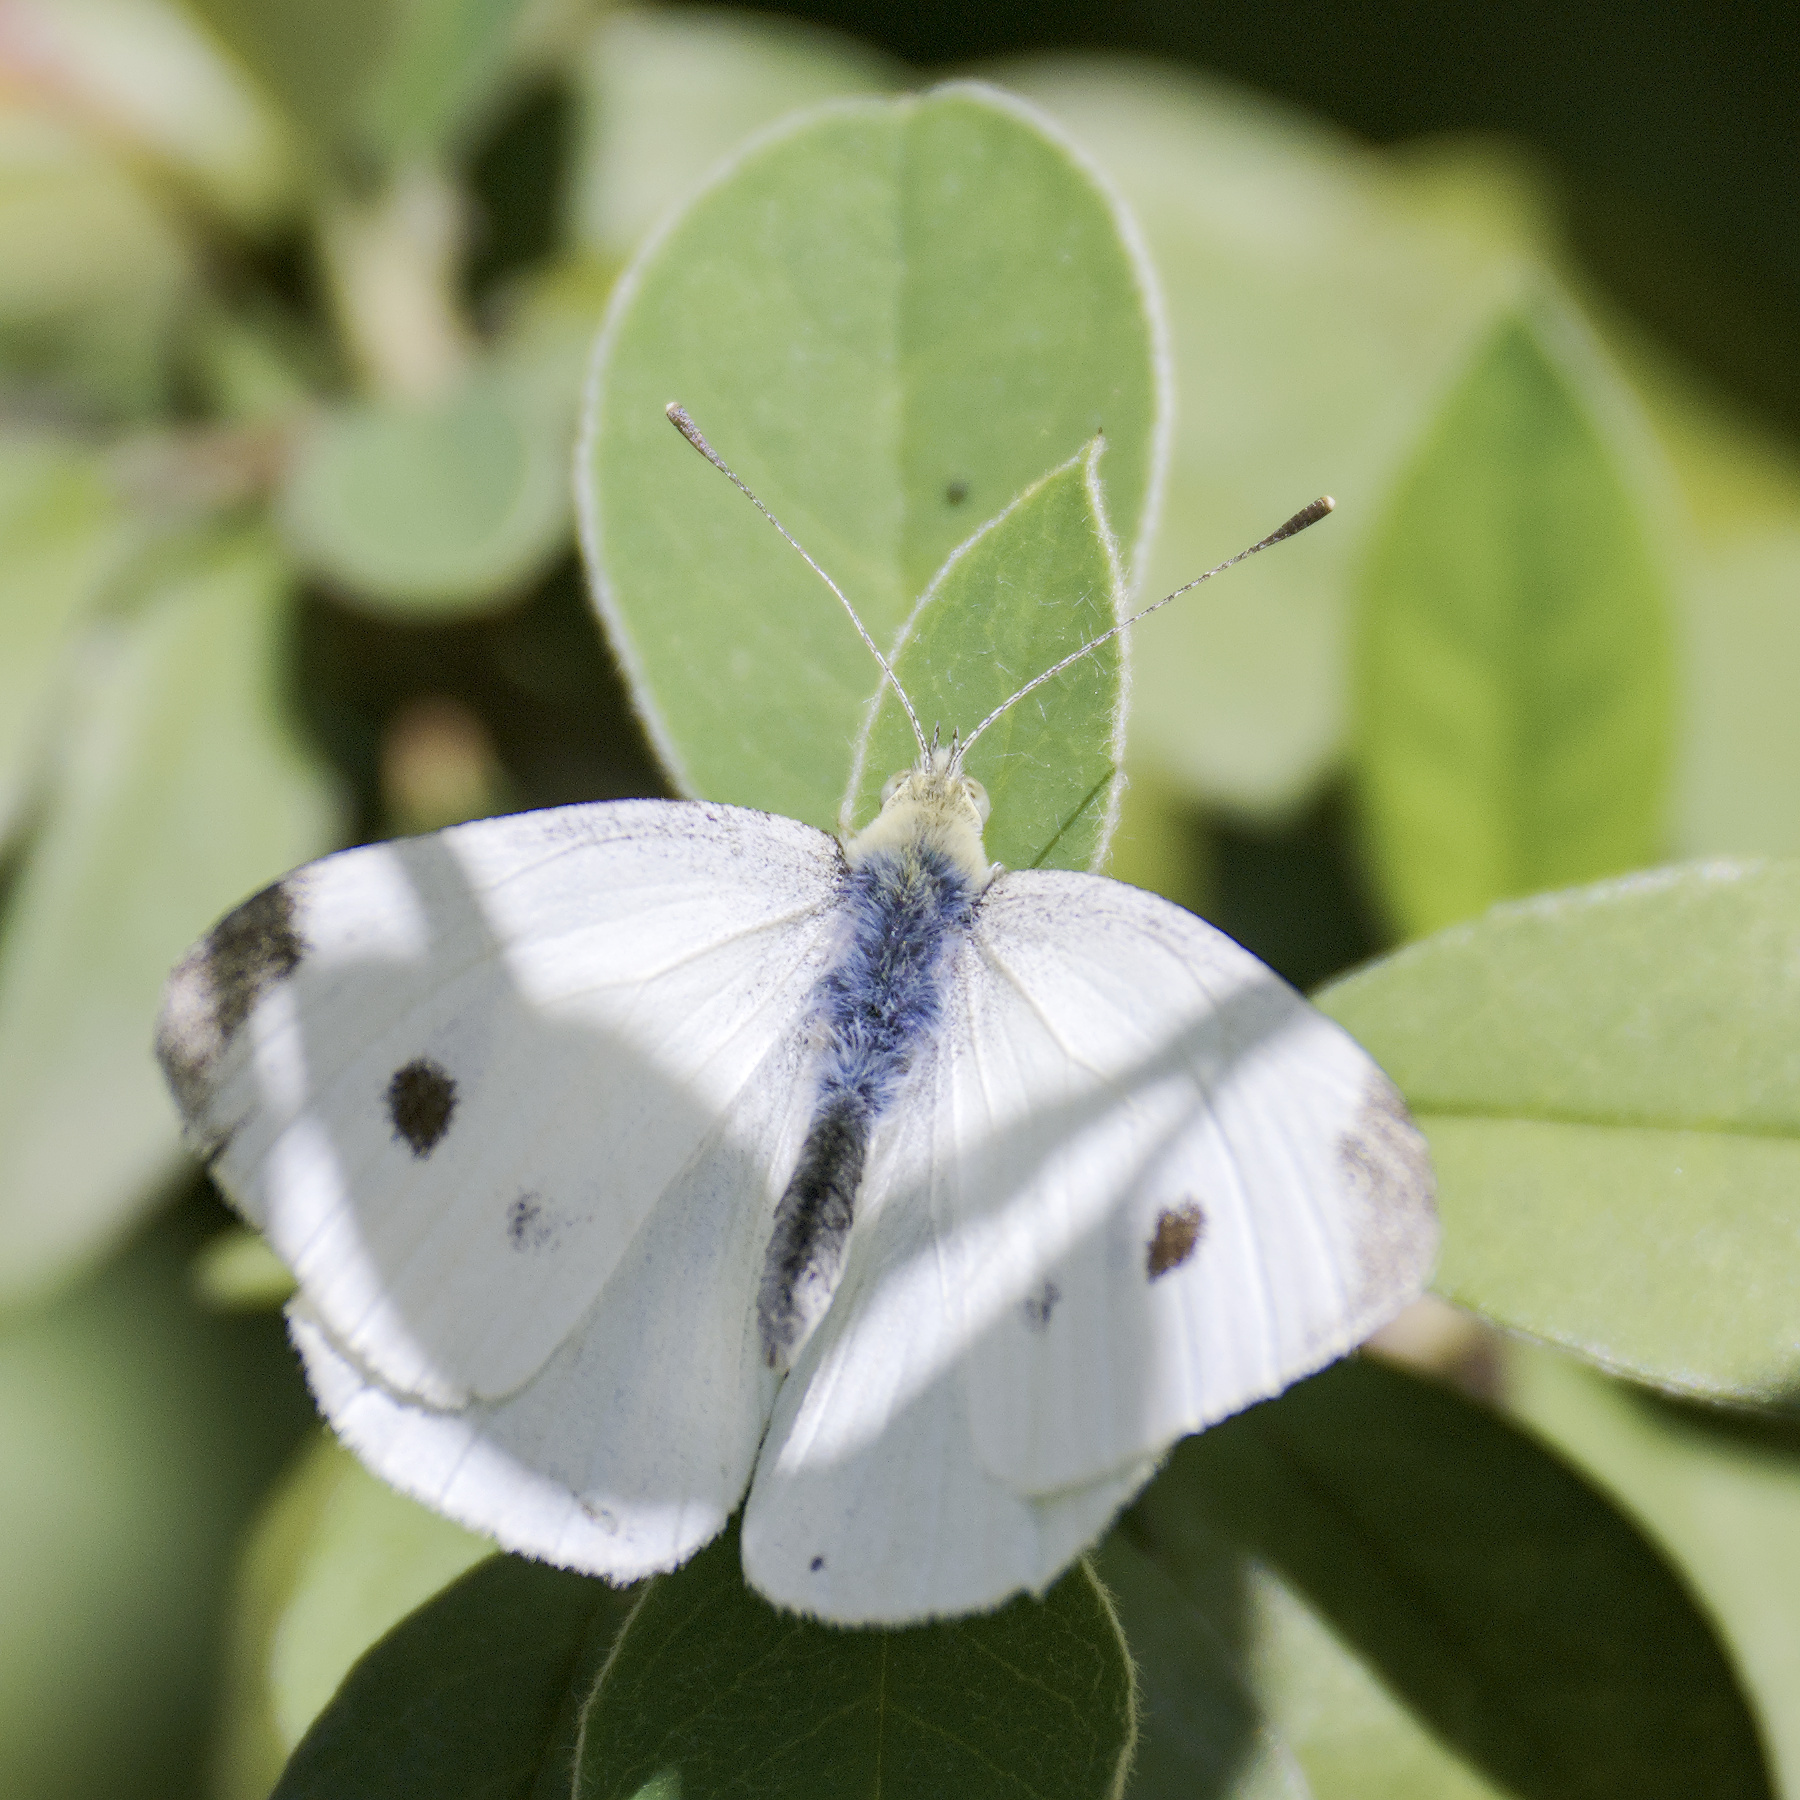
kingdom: Animalia
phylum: Arthropoda
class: Insecta
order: Lepidoptera
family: Pieridae
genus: Pieris
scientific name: Pieris rapae
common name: Small white
